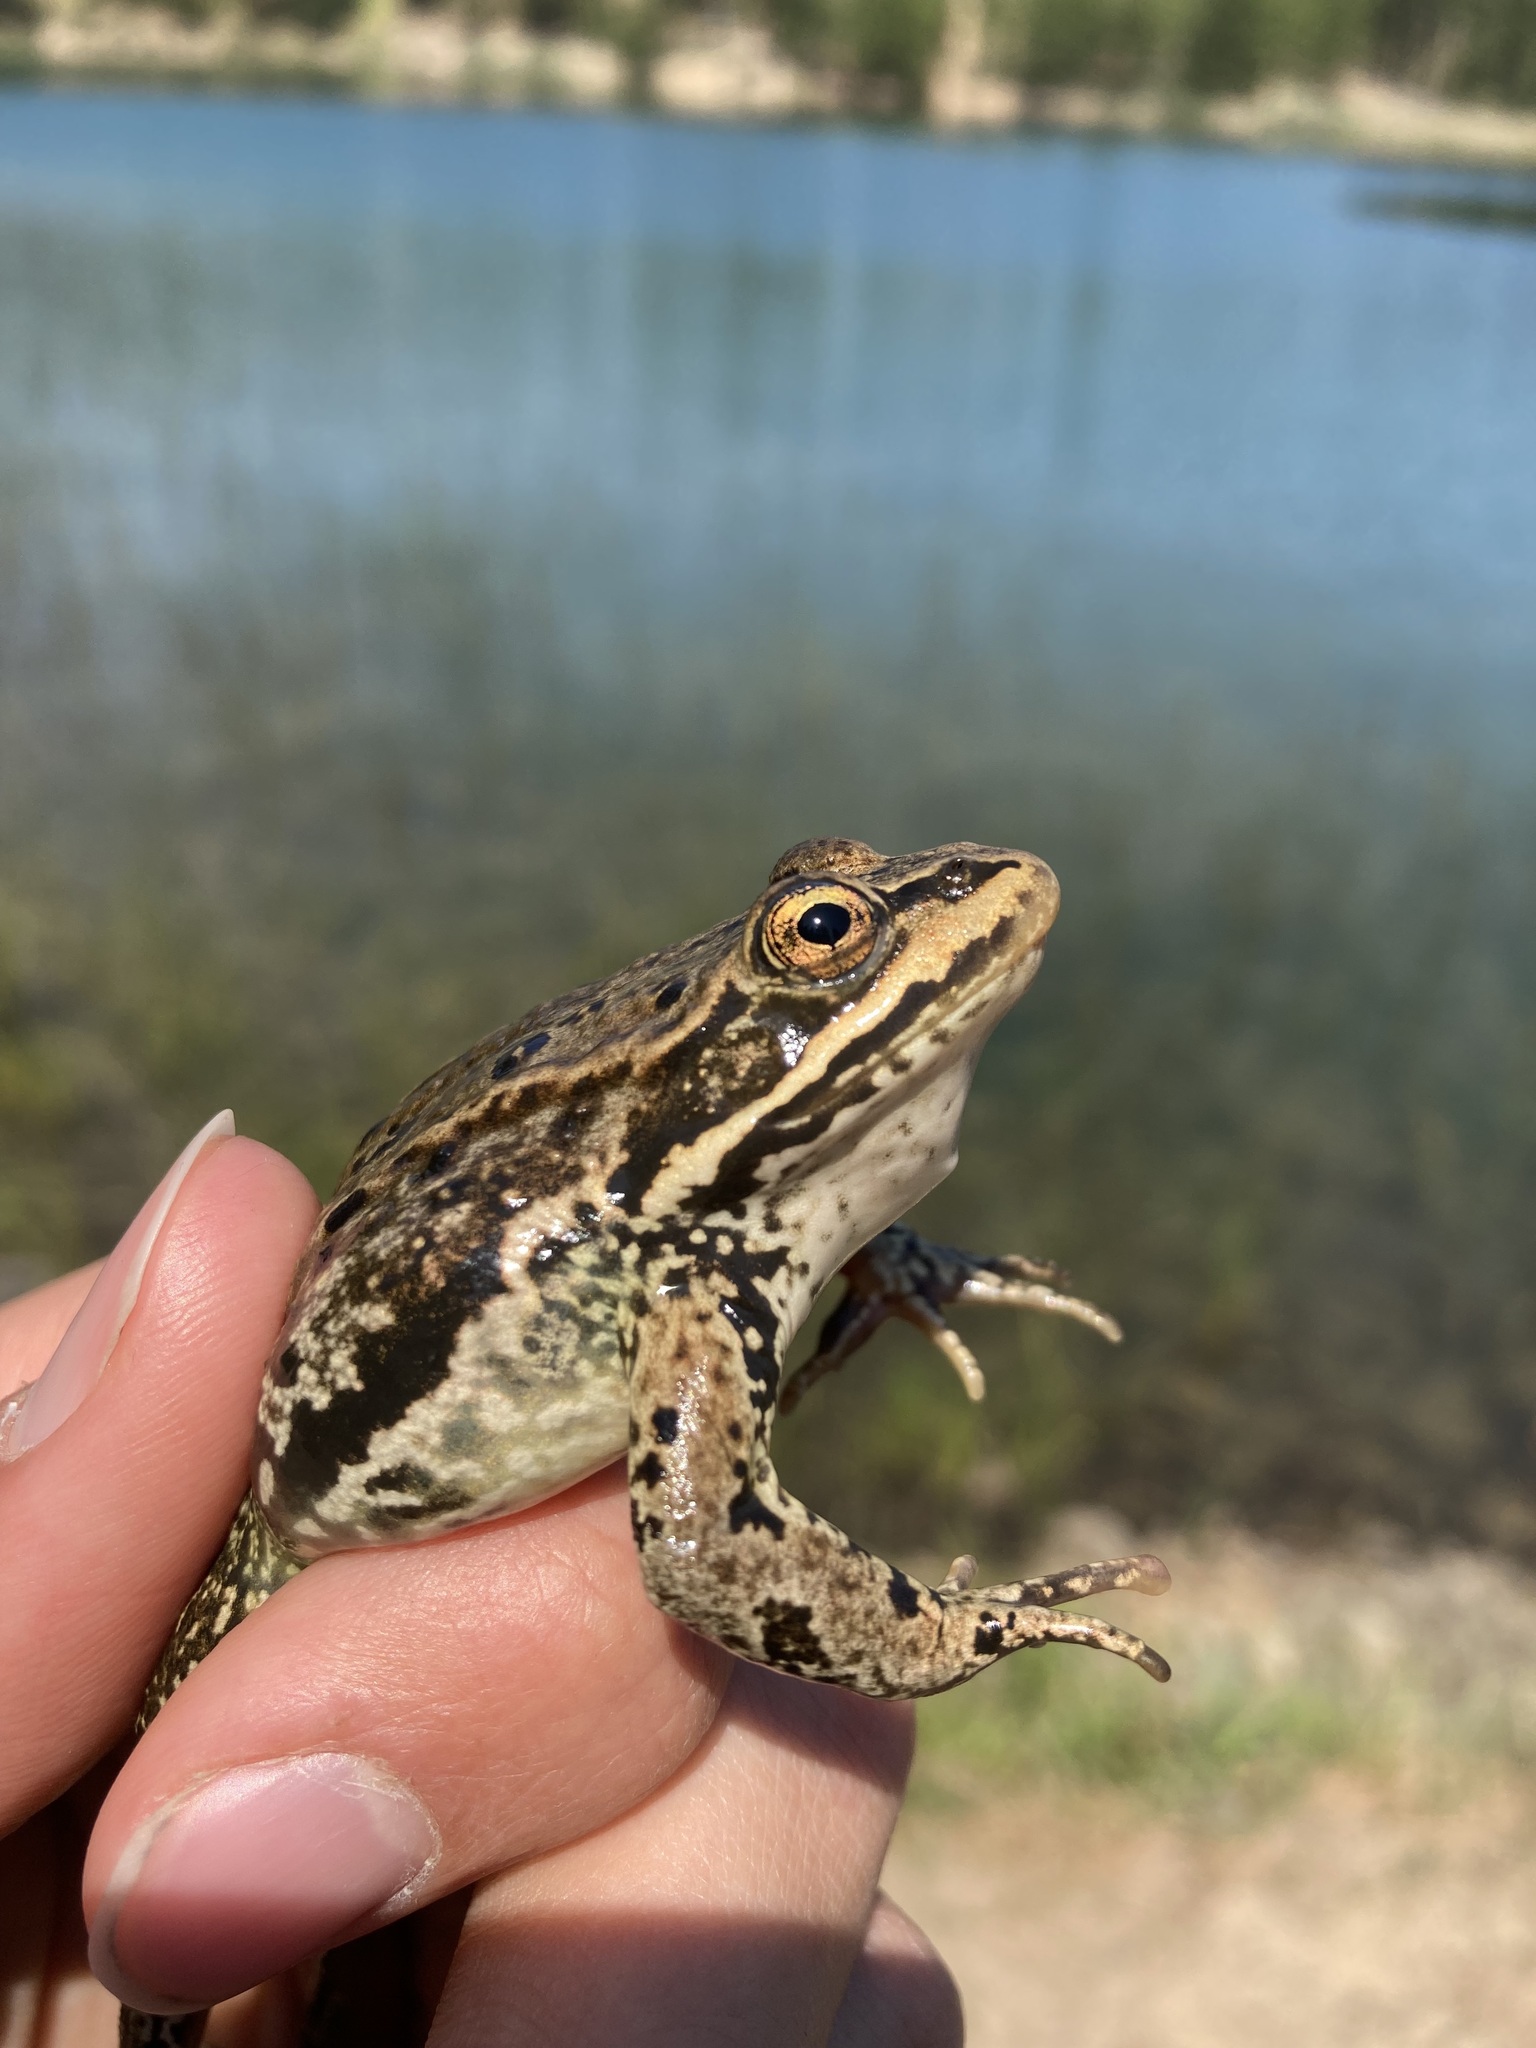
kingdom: Animalia
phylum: Chordata
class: Amphibia
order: Anura
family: Ranidae
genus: Rana
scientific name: Rana cascadae
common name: Cascades frog
